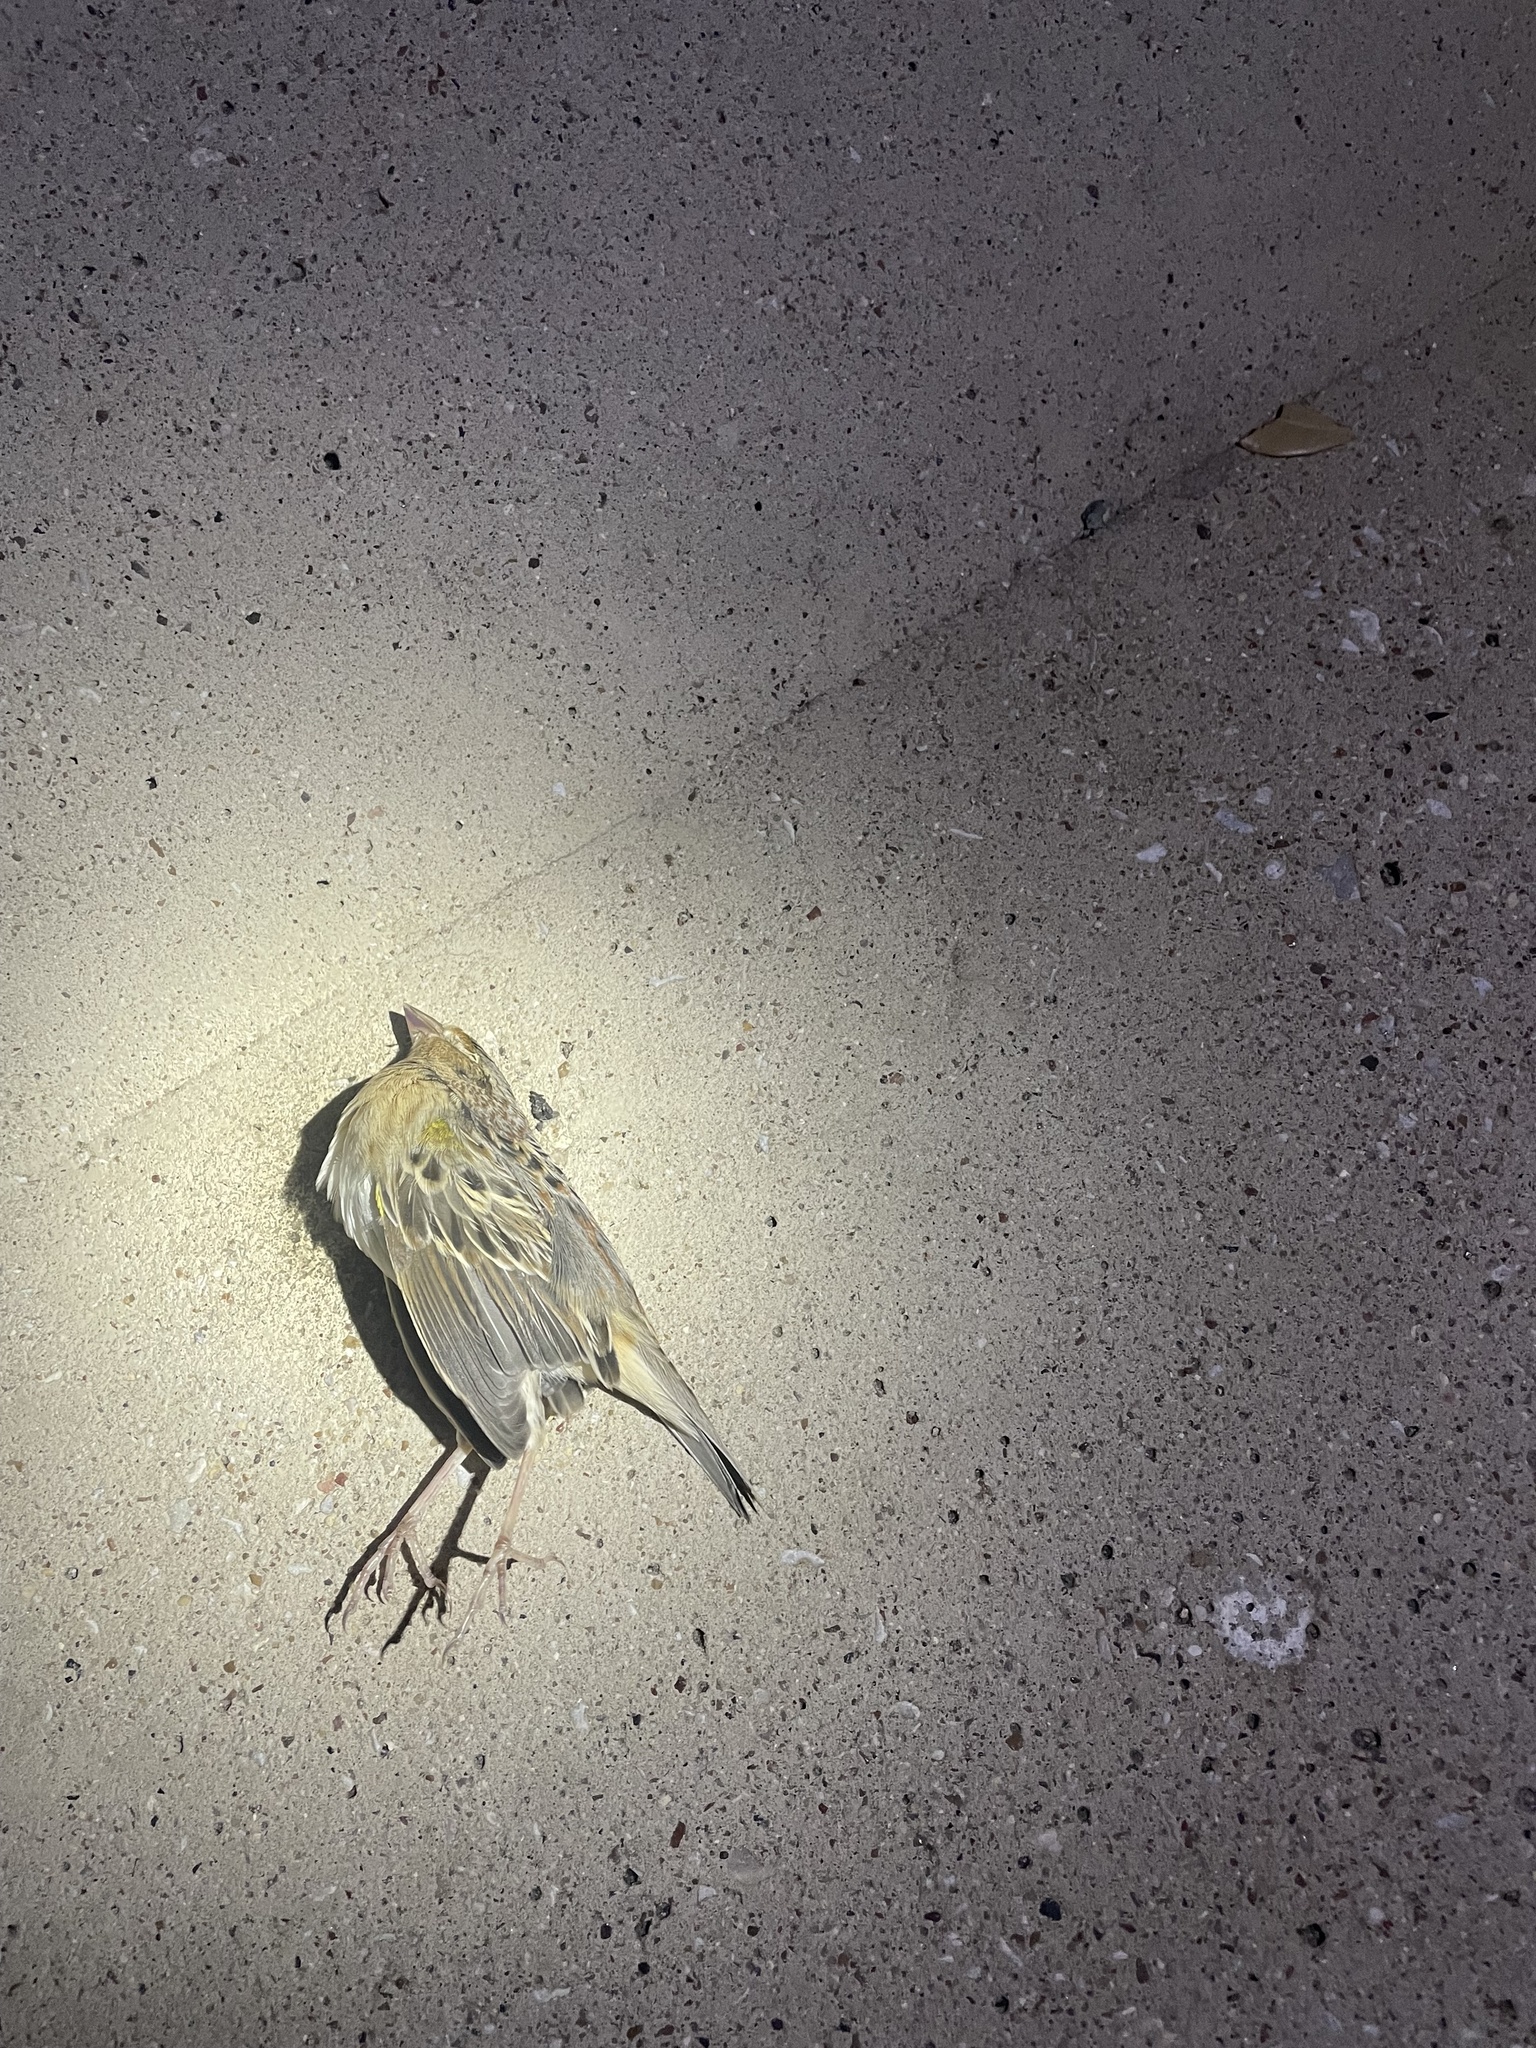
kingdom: Animalia
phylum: Chordata
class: Aves
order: Passeriformes
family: Passerellidae
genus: Ammodramus
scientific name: Ammodramus savannarum
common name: Grasshopper sparrow
